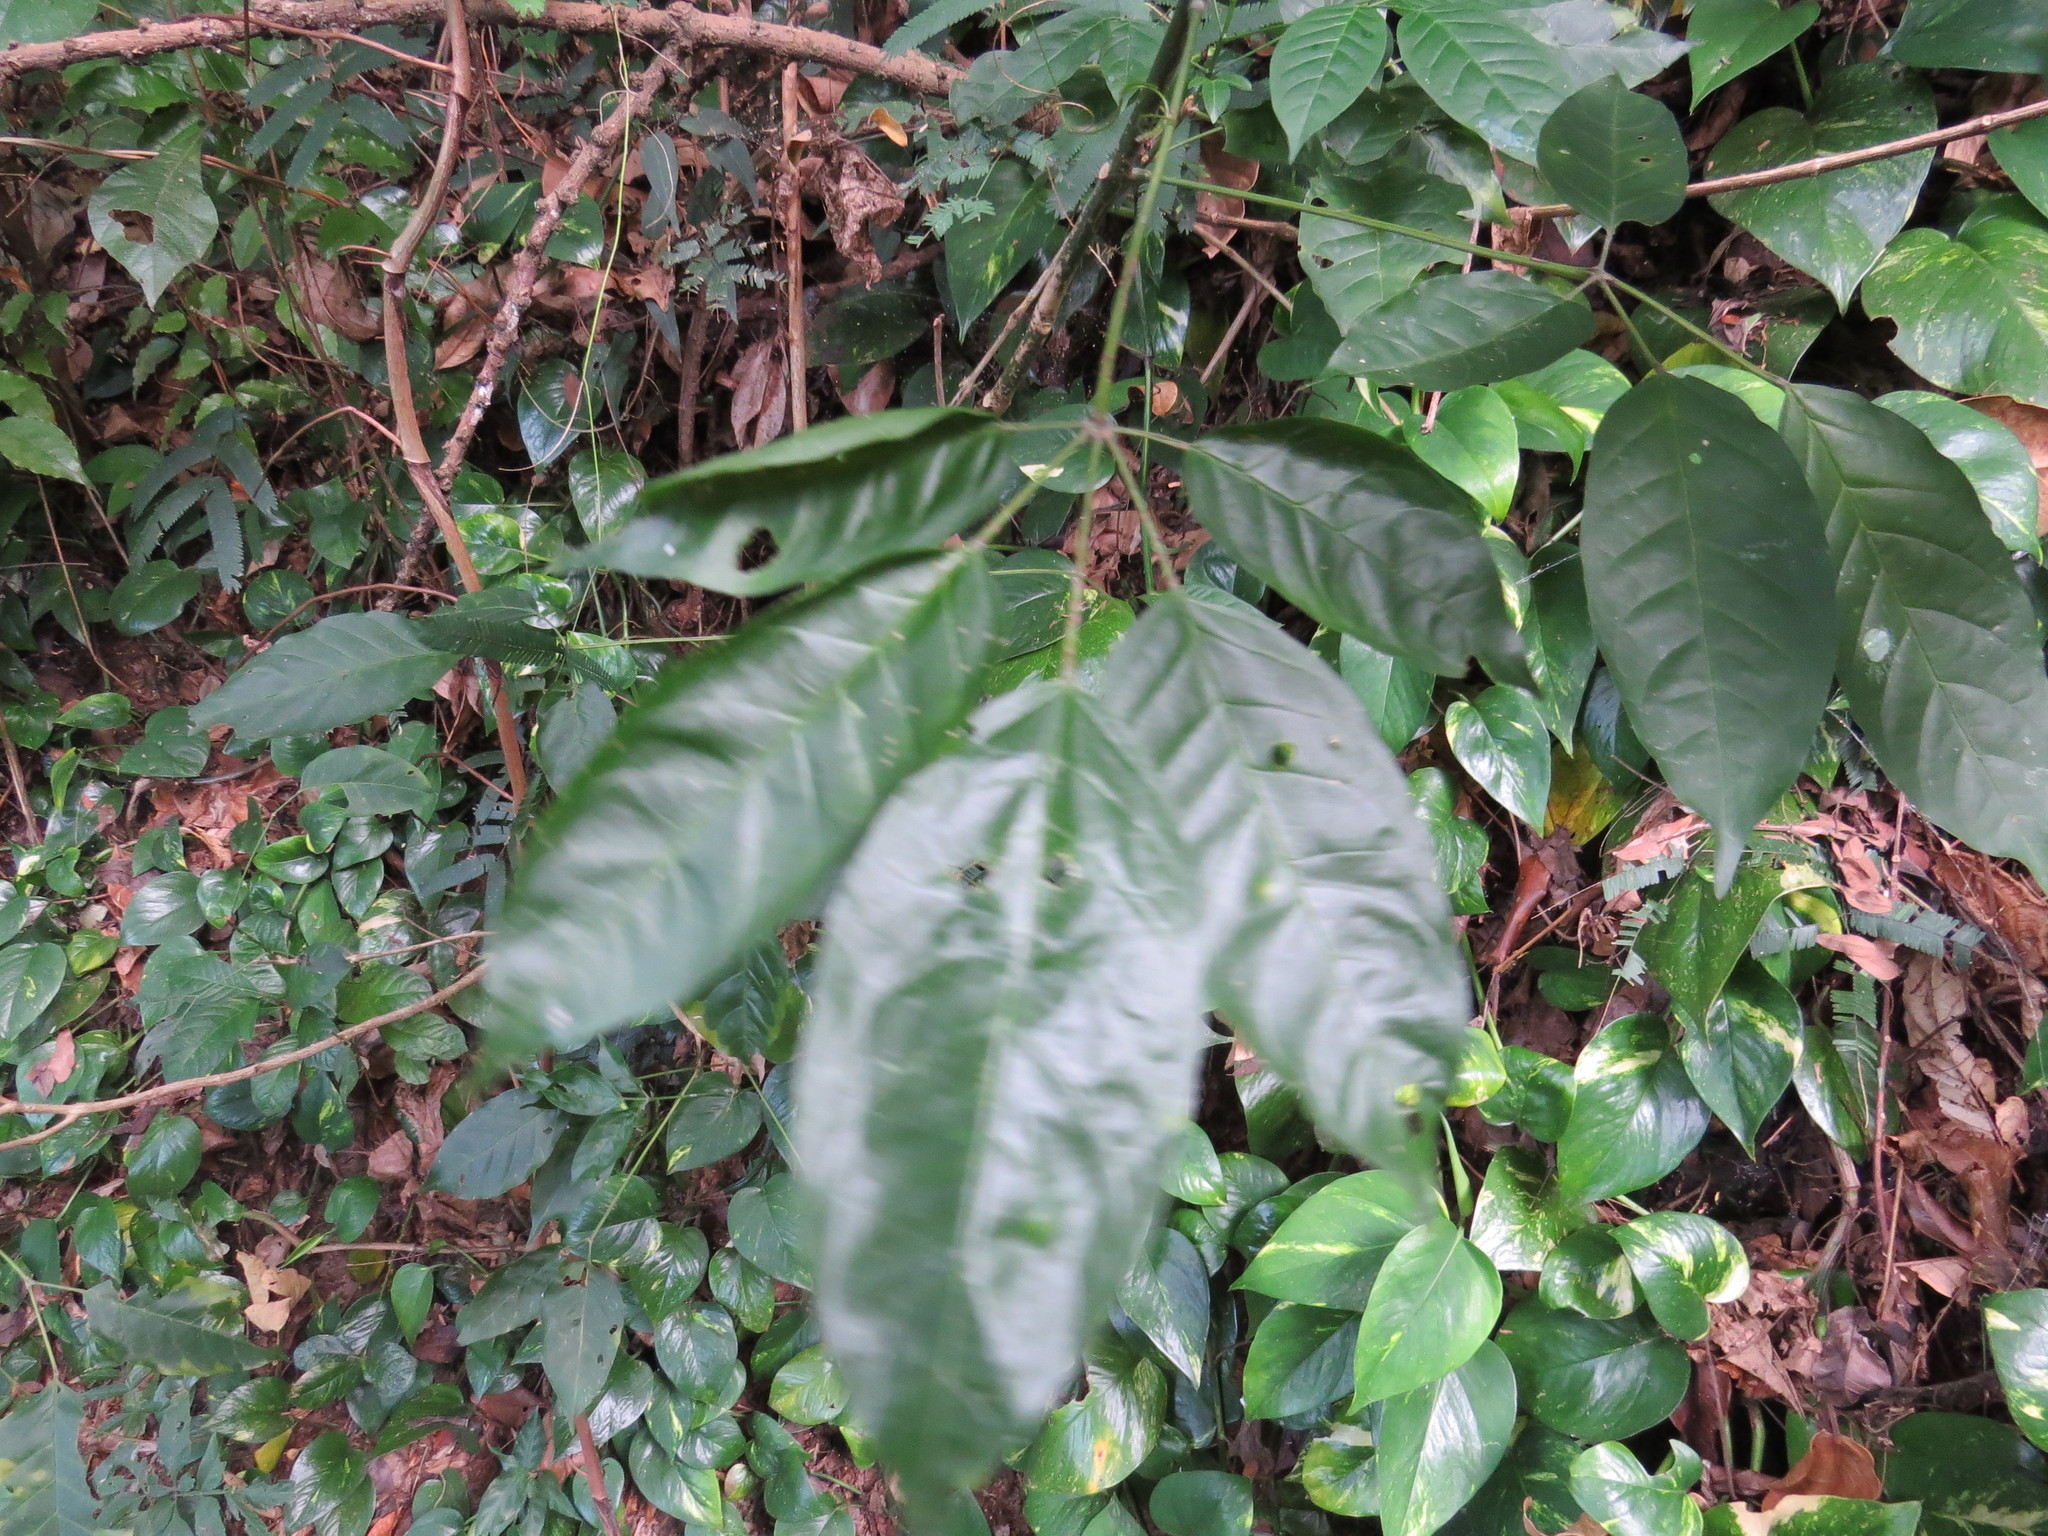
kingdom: Plantae
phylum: Tracheophyta
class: Magnoliopsida
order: Lamiales
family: Bignoniaceae
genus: Sparattosperma
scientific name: Sparattosperma leucanthum
